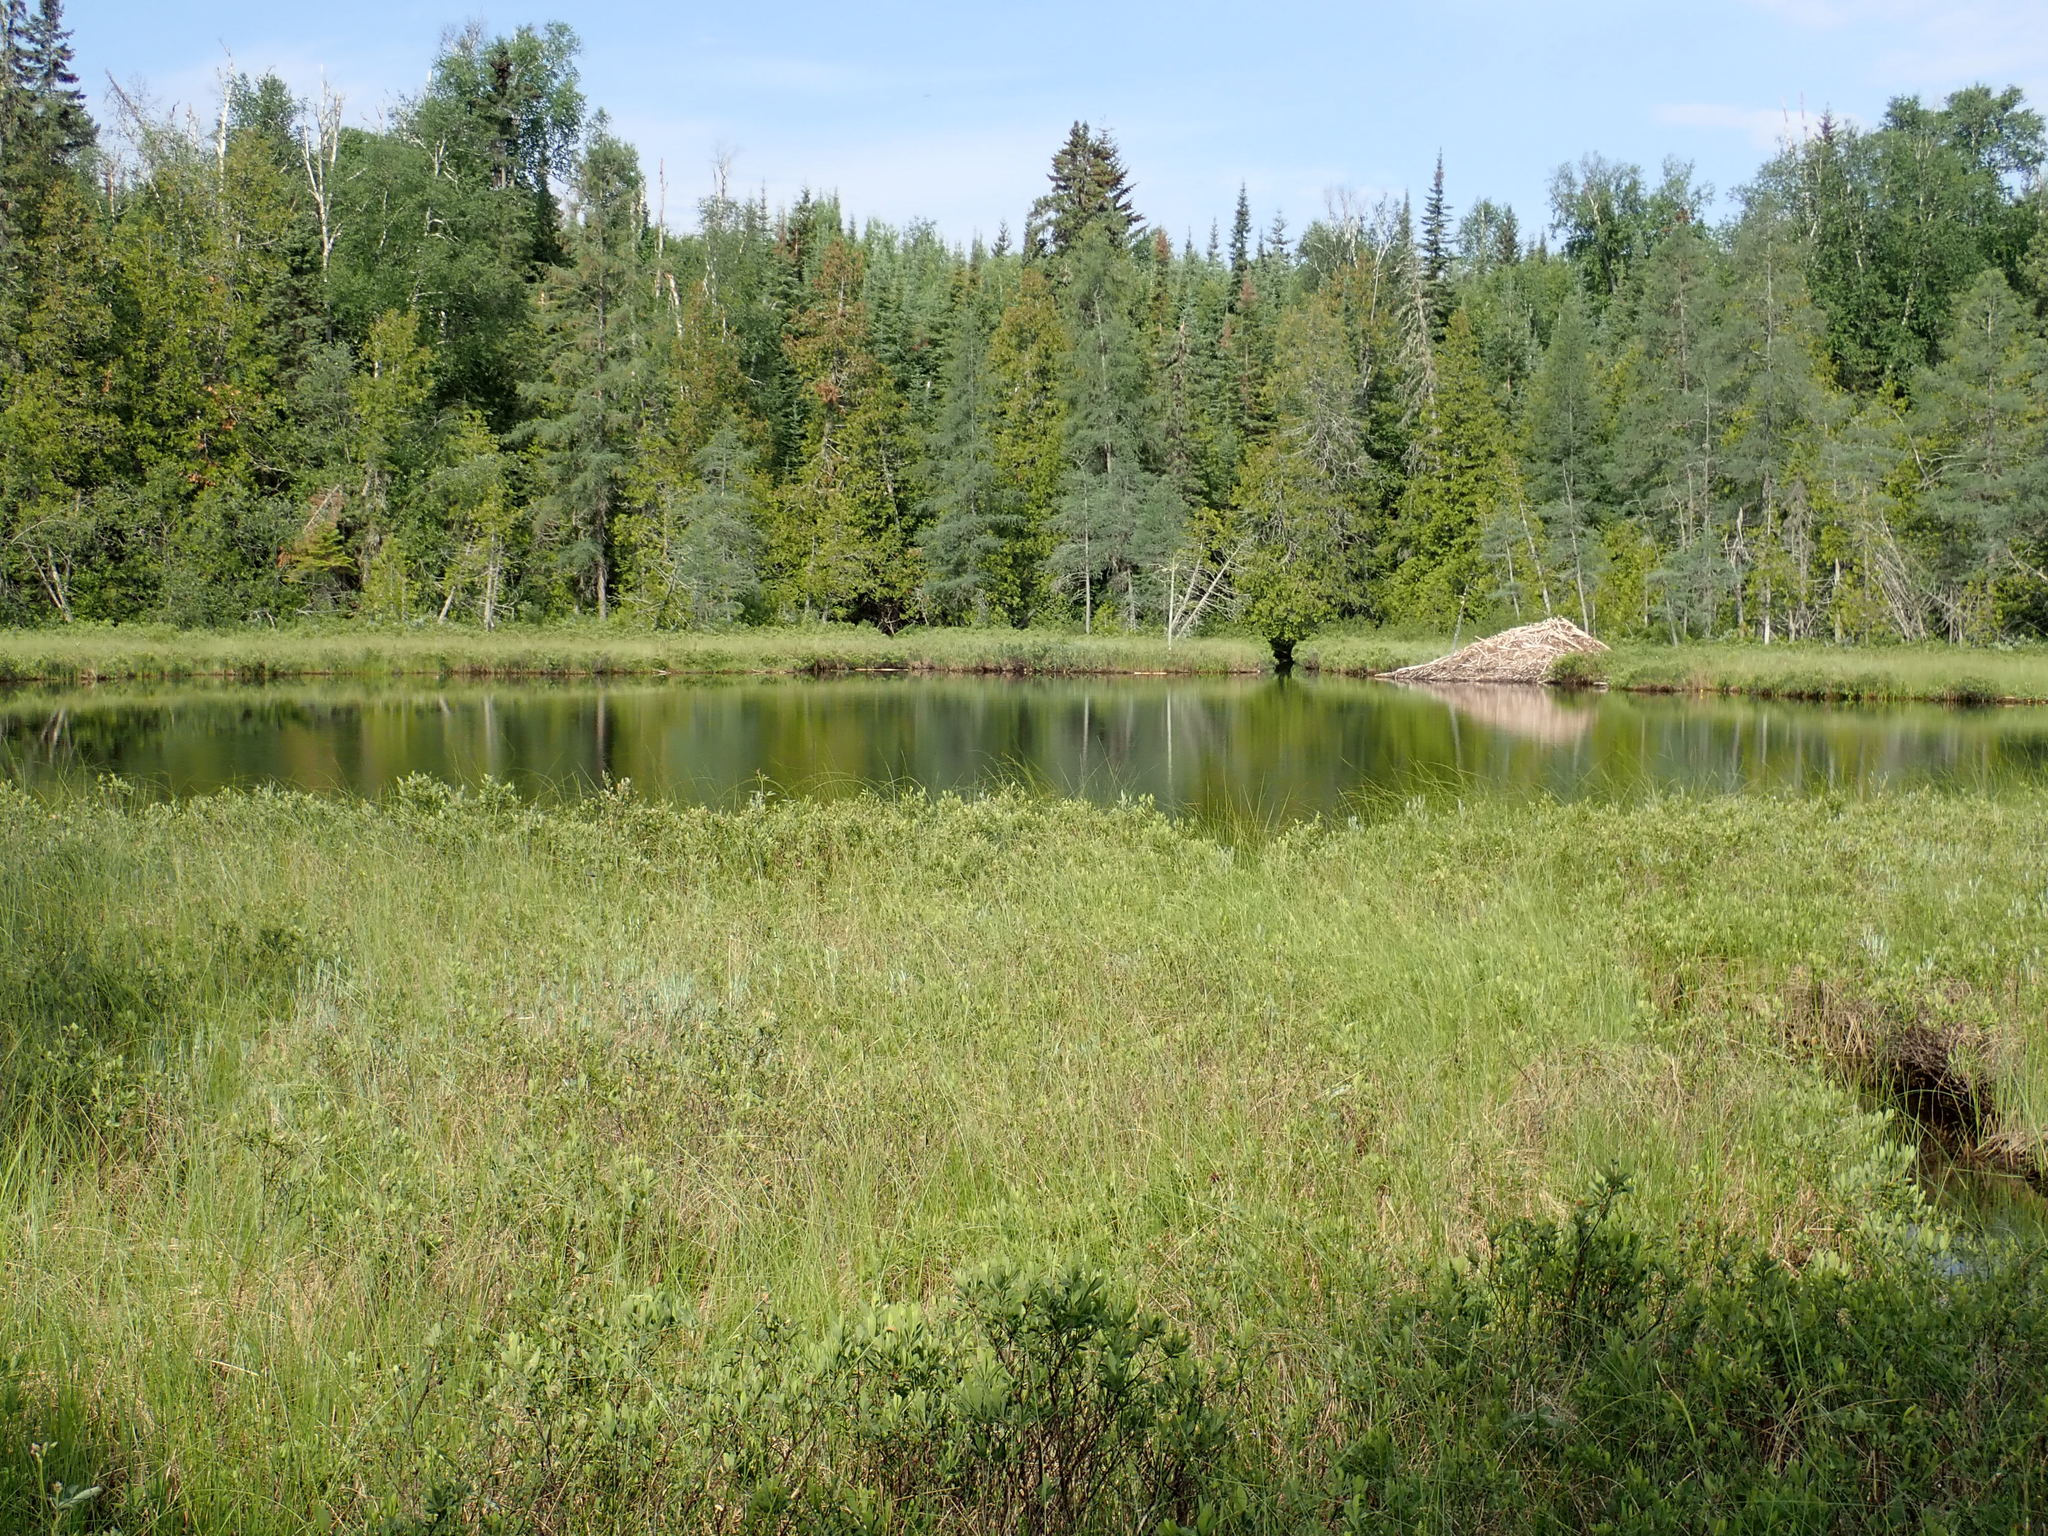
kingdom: Animalia
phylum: Chordata
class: Mammalia
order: Rodentia
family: Castoridae
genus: Castor
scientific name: Castor canadensis
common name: American beaver
